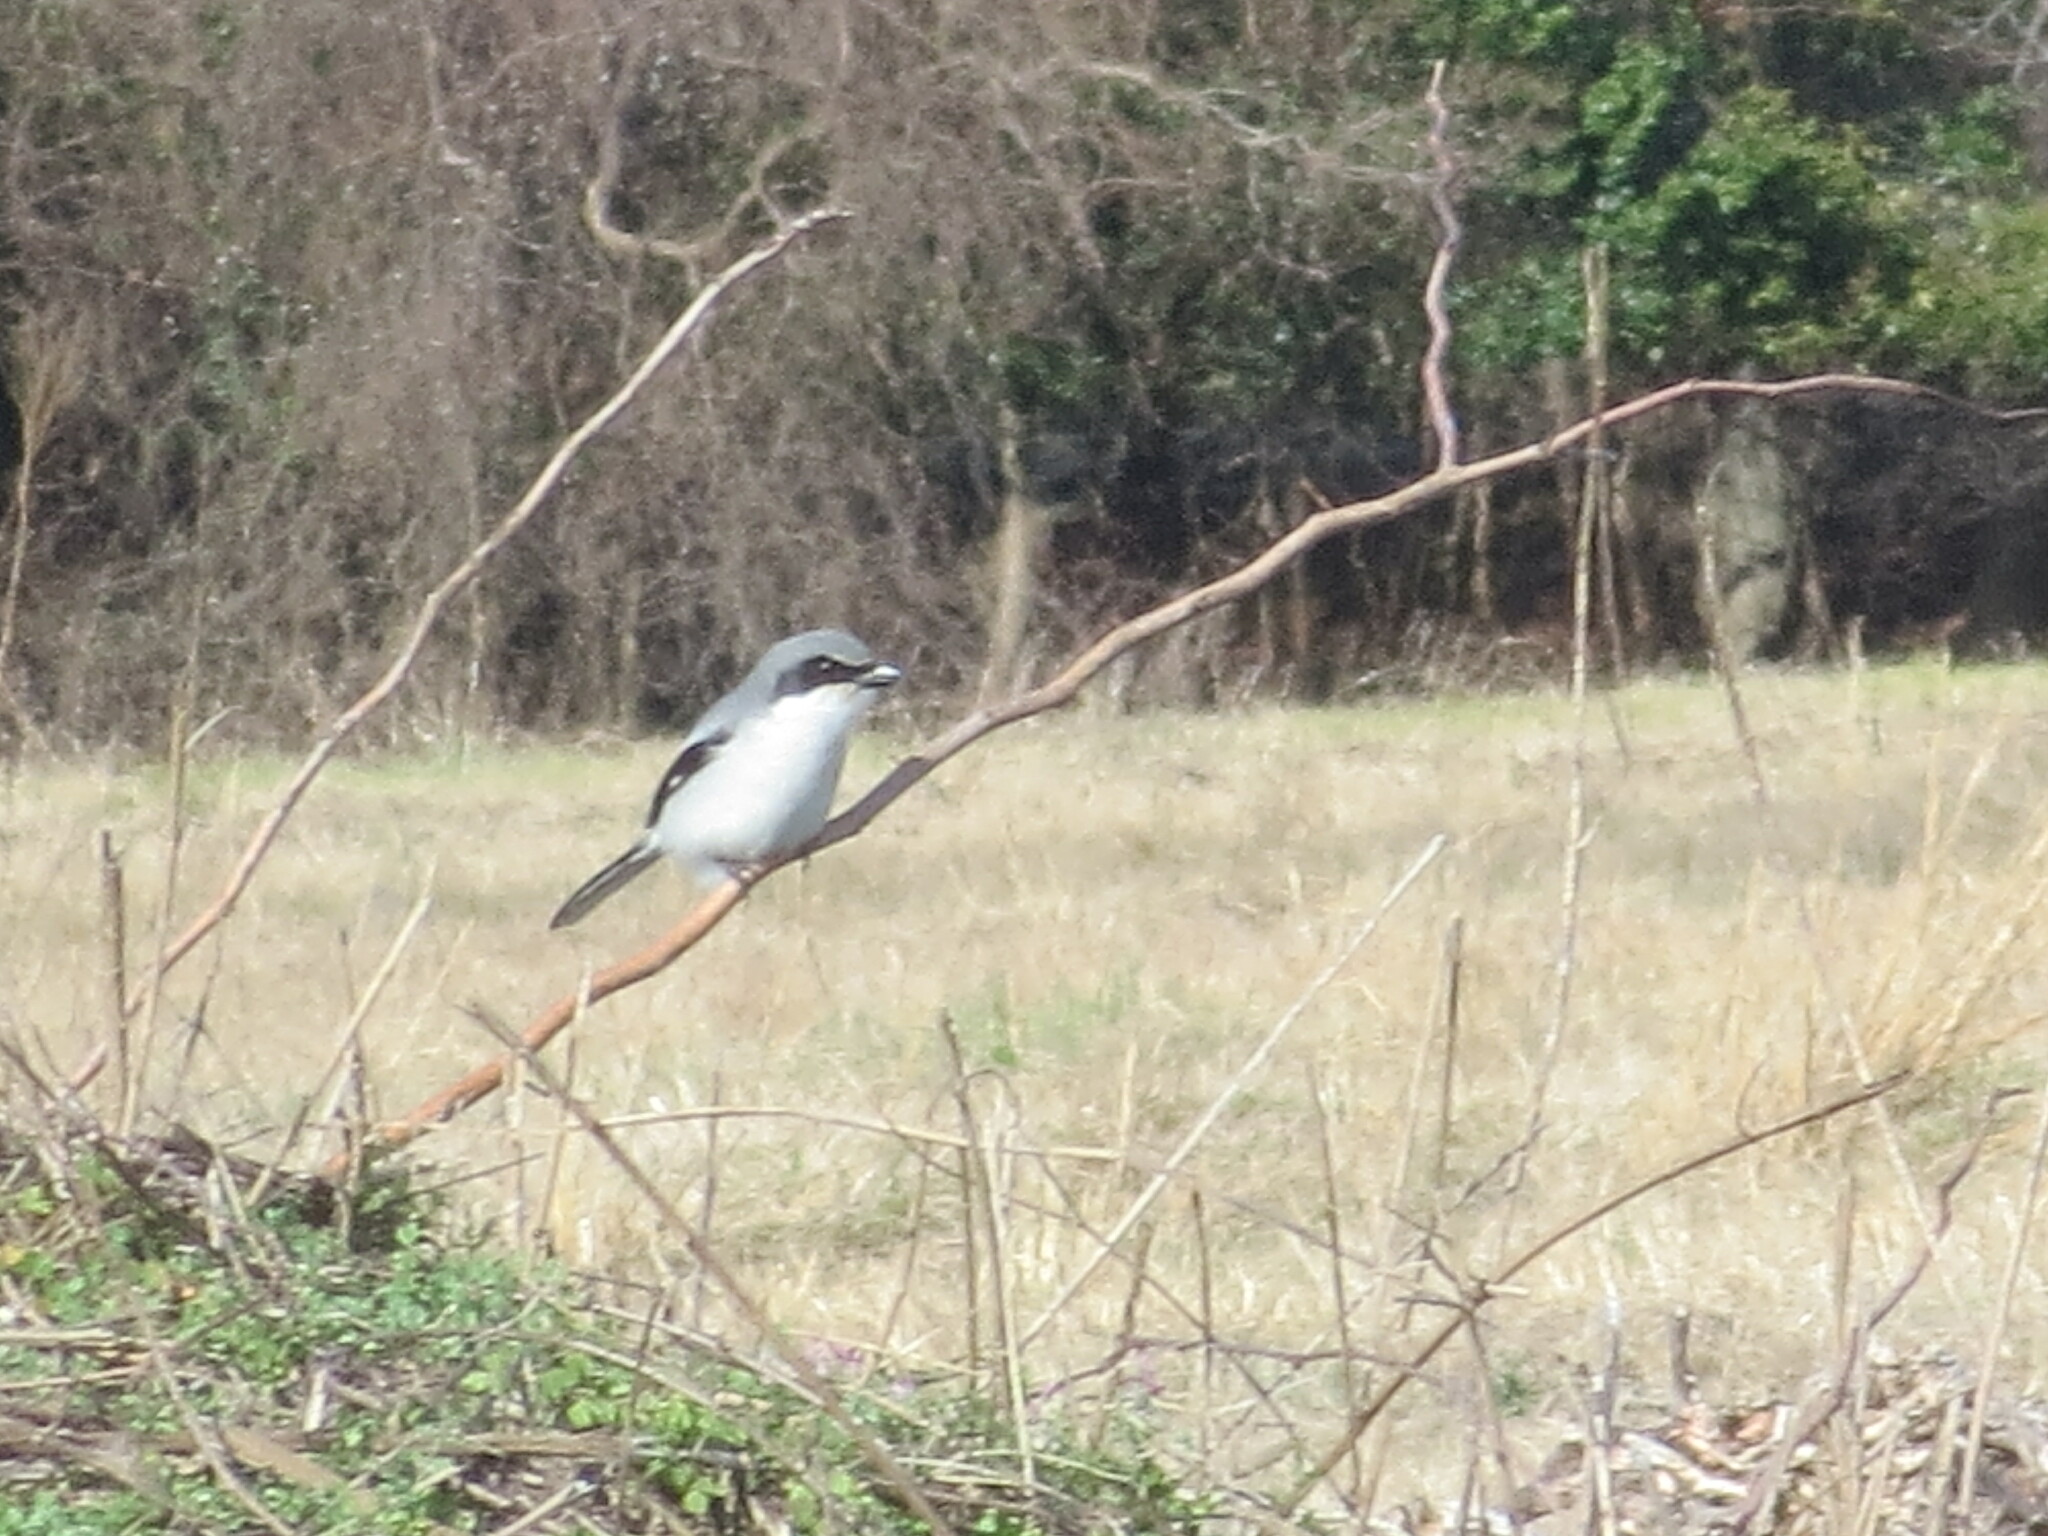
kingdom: Animalia
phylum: Chordata
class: Aves
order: Passeriformes
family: Laniidae
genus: Lanius
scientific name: Lanius ludovicianus
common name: Loggerhead shrike
